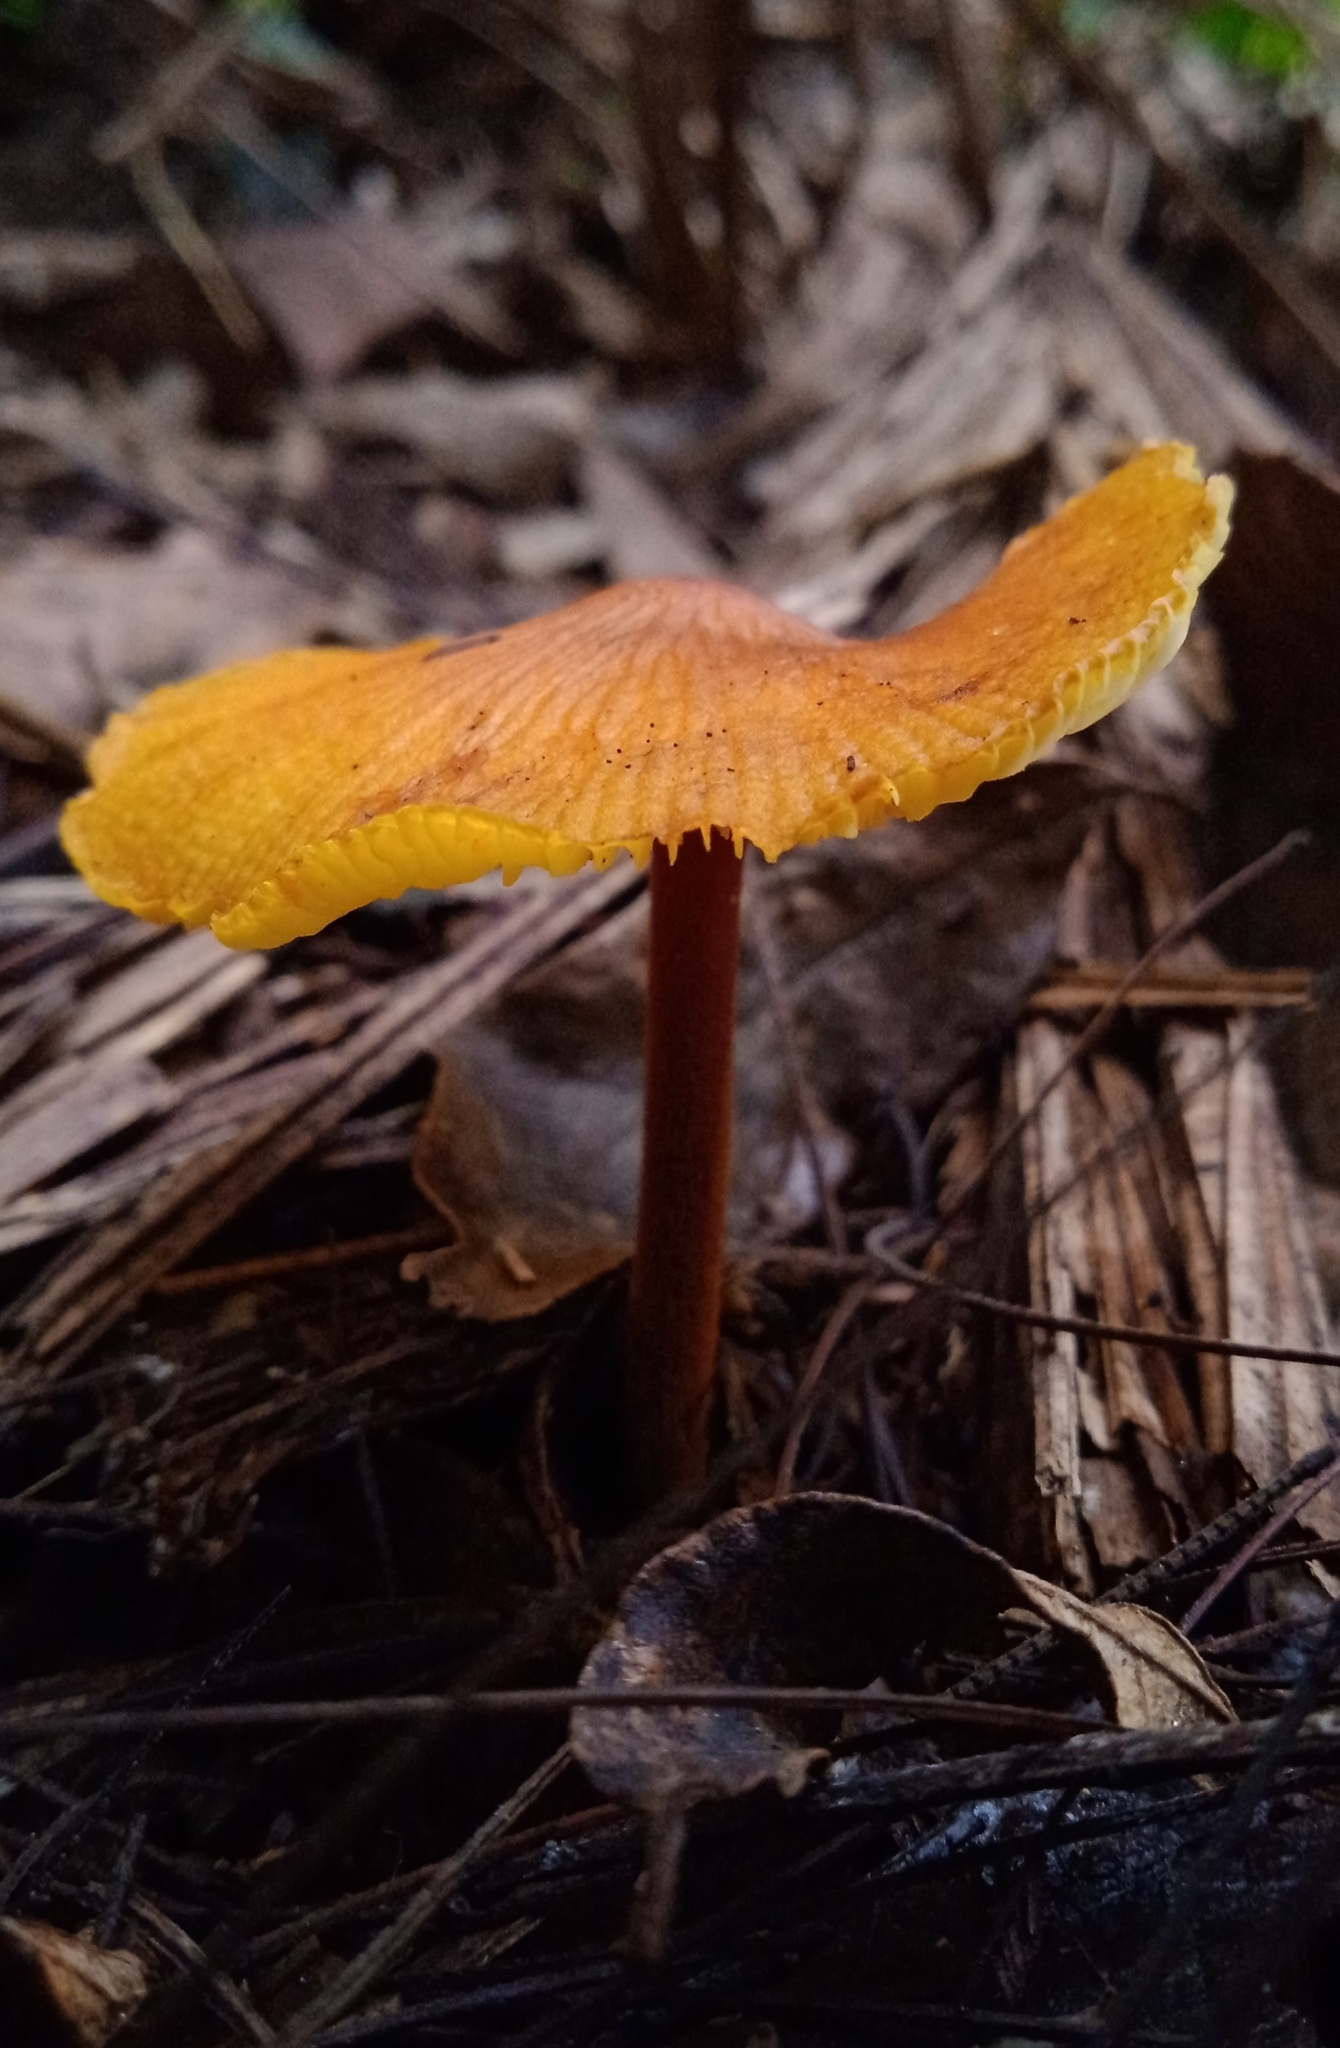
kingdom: Fungi
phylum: Basidiomycota
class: Agaricomycetes
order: Agaricales
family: Mycenaceae
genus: Xeromphalina
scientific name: Xeromphalina tenuipes
